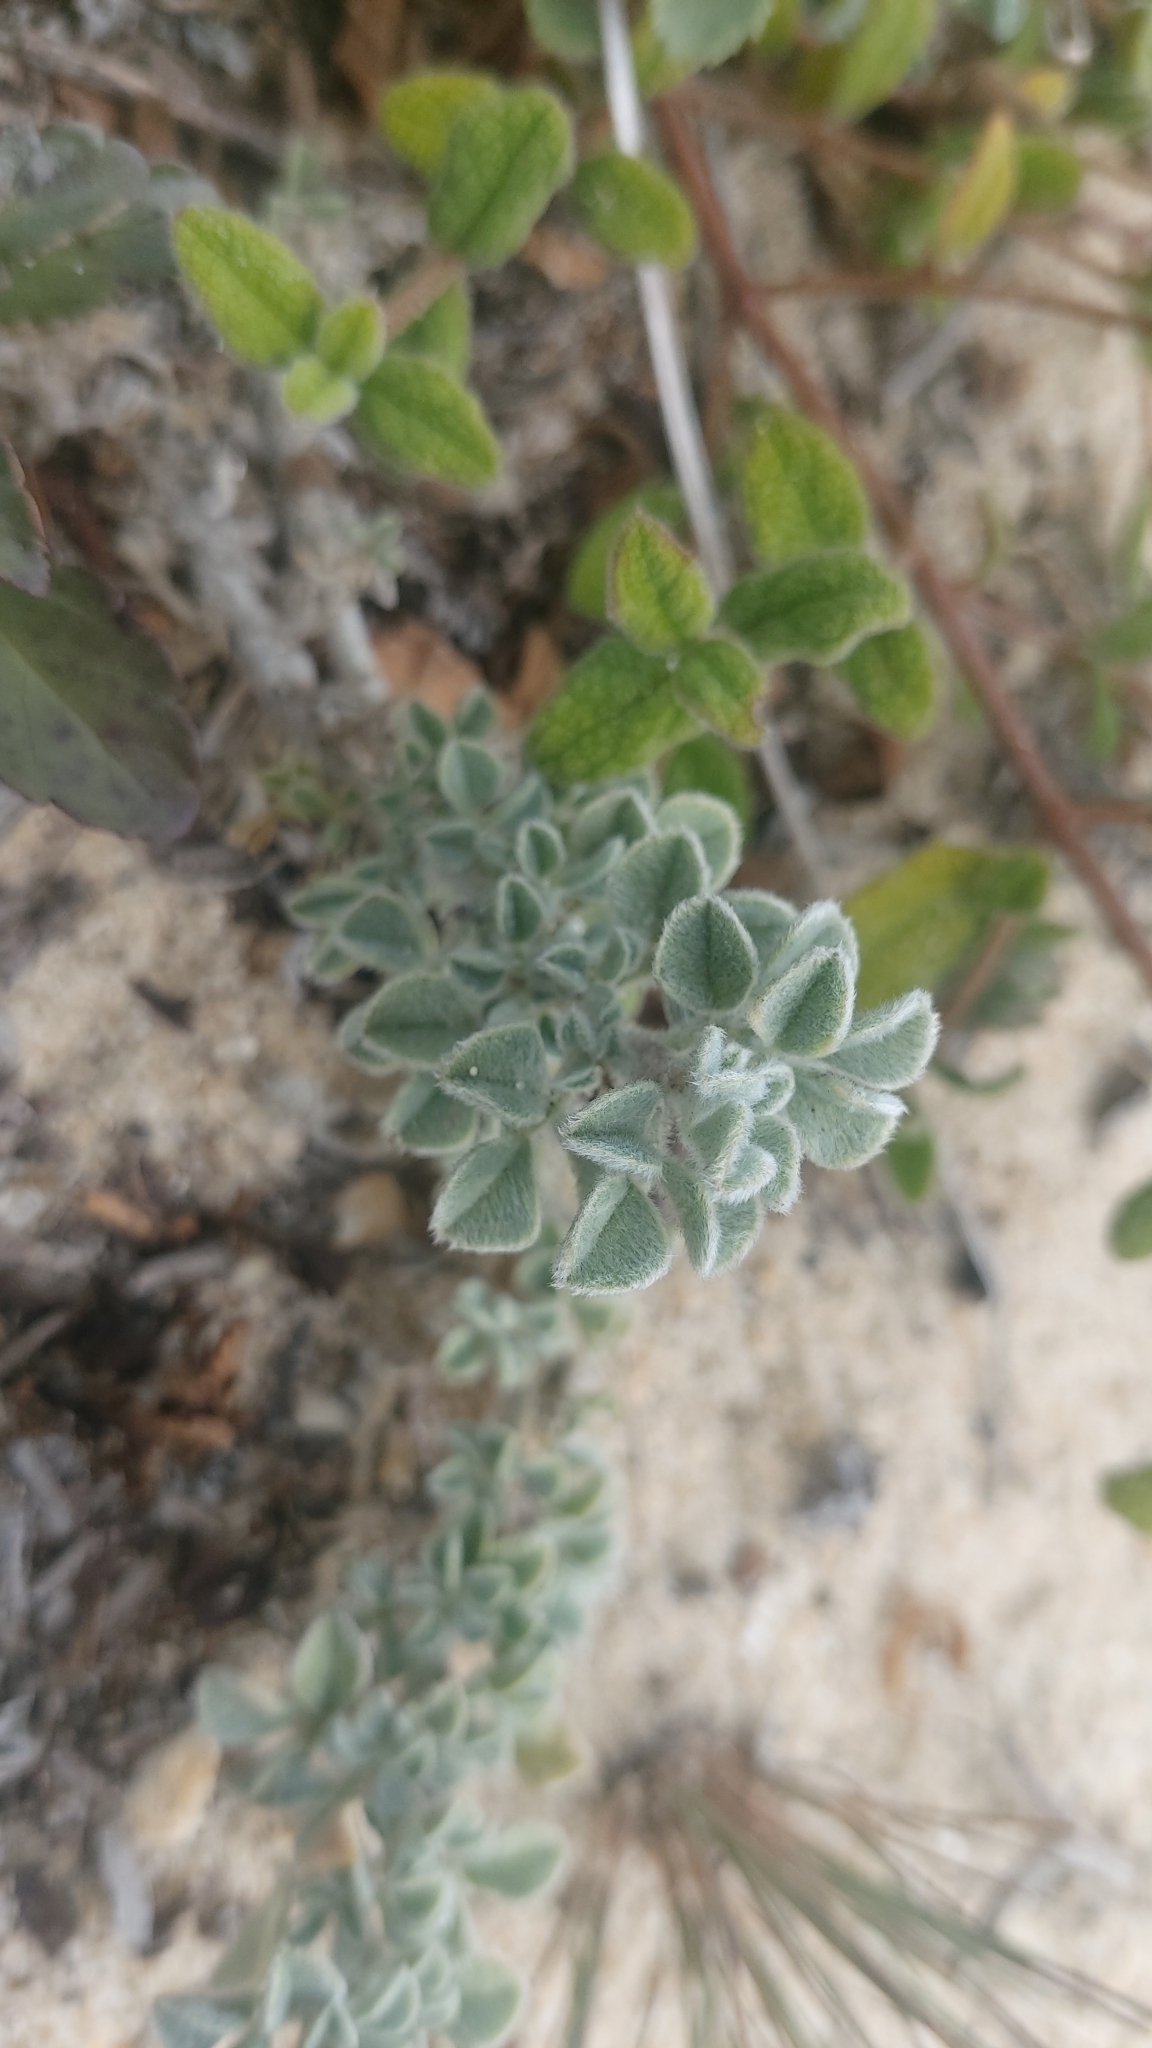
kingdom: Plantae
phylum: Tracheophyta
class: Magnoliopsida
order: Fabales
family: Fabaceae
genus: Medicago
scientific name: Medicago marina
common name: Sea medick
